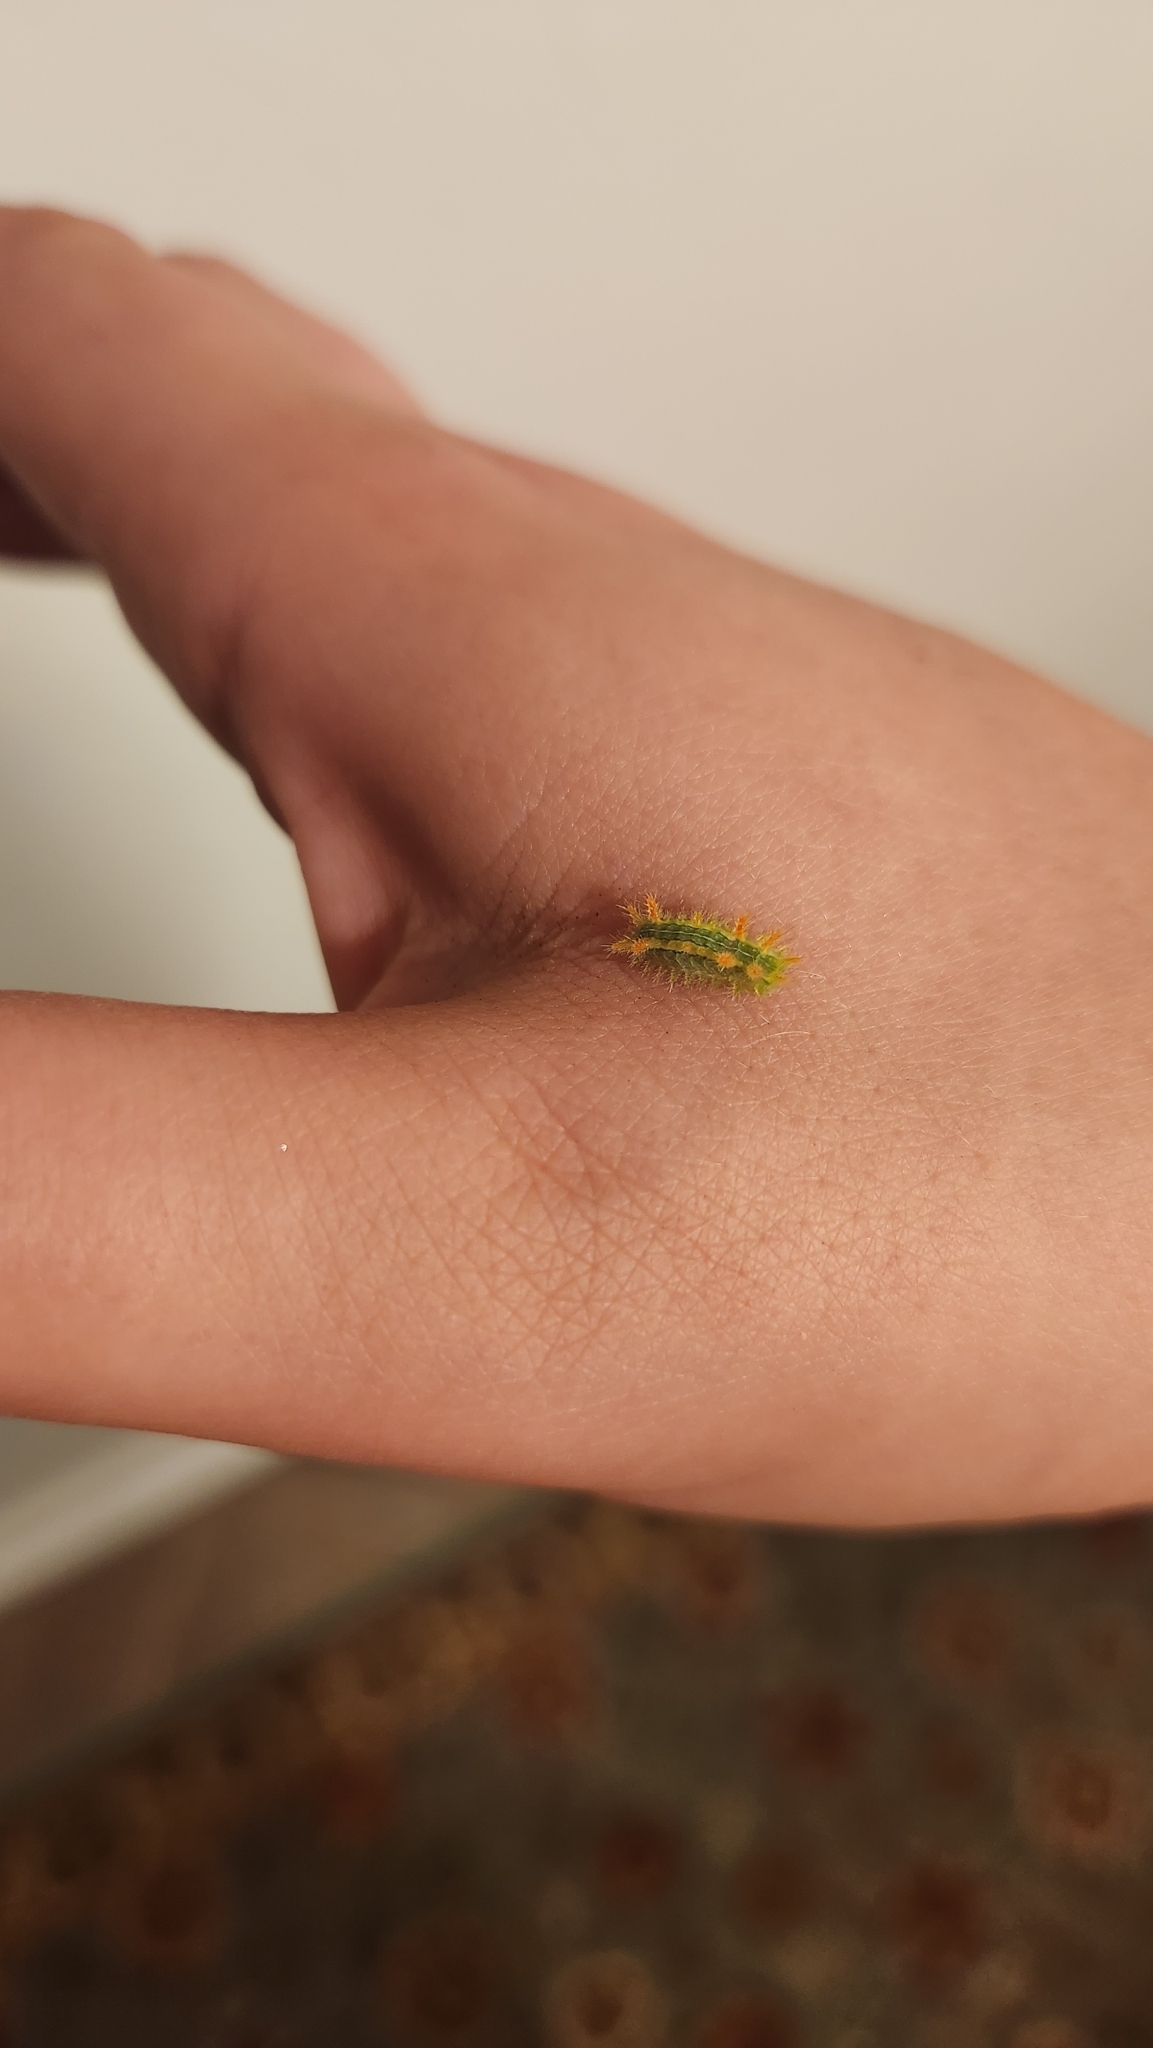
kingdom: Animalia
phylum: Arthropoda
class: Insecta
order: Lepidoptera
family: Limacodidae
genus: Euclea
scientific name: Euclea incisa
